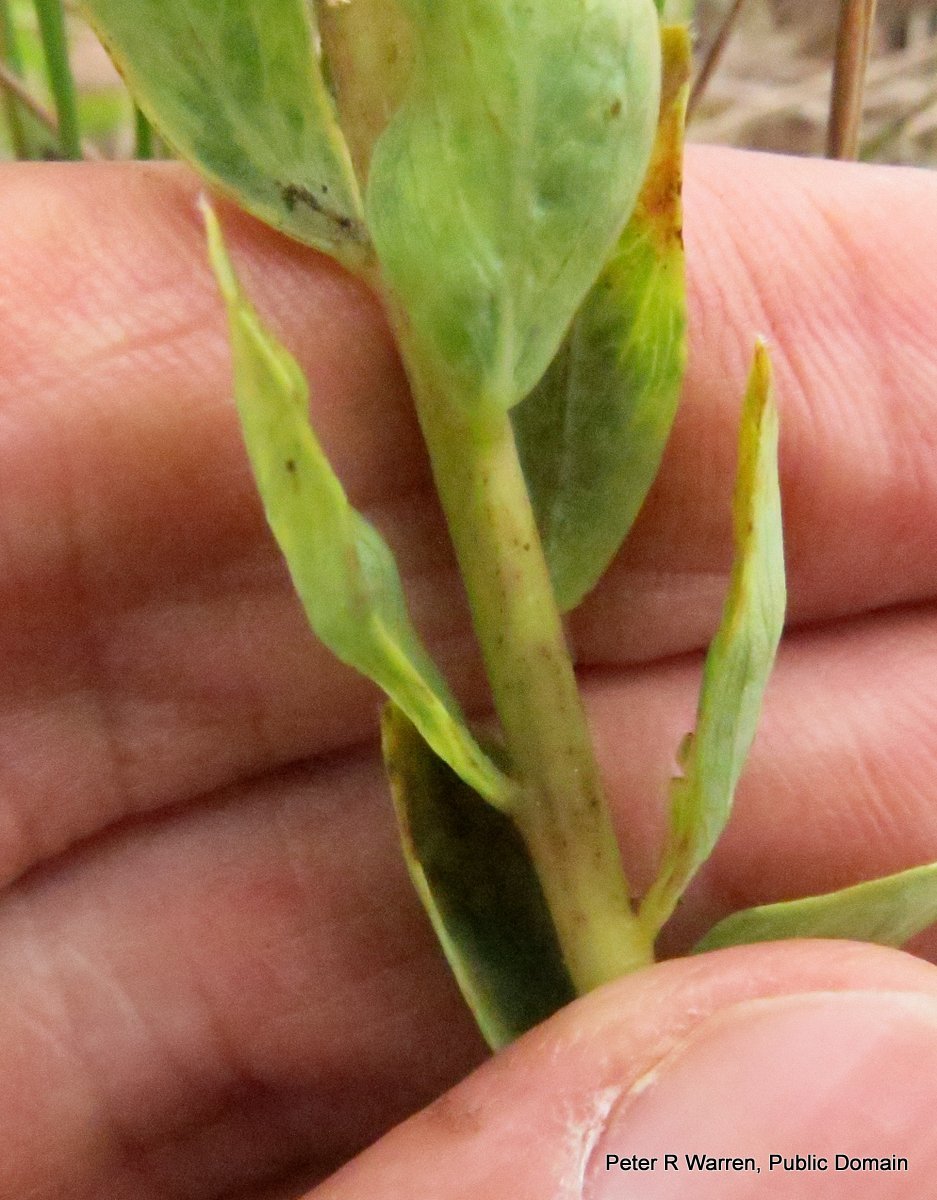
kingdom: Plantae
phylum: Tracheophyta
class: Magnoliopsida
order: Malvales
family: Thymelaeaceae
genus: Gnidia
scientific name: Gnidia kraussiana
